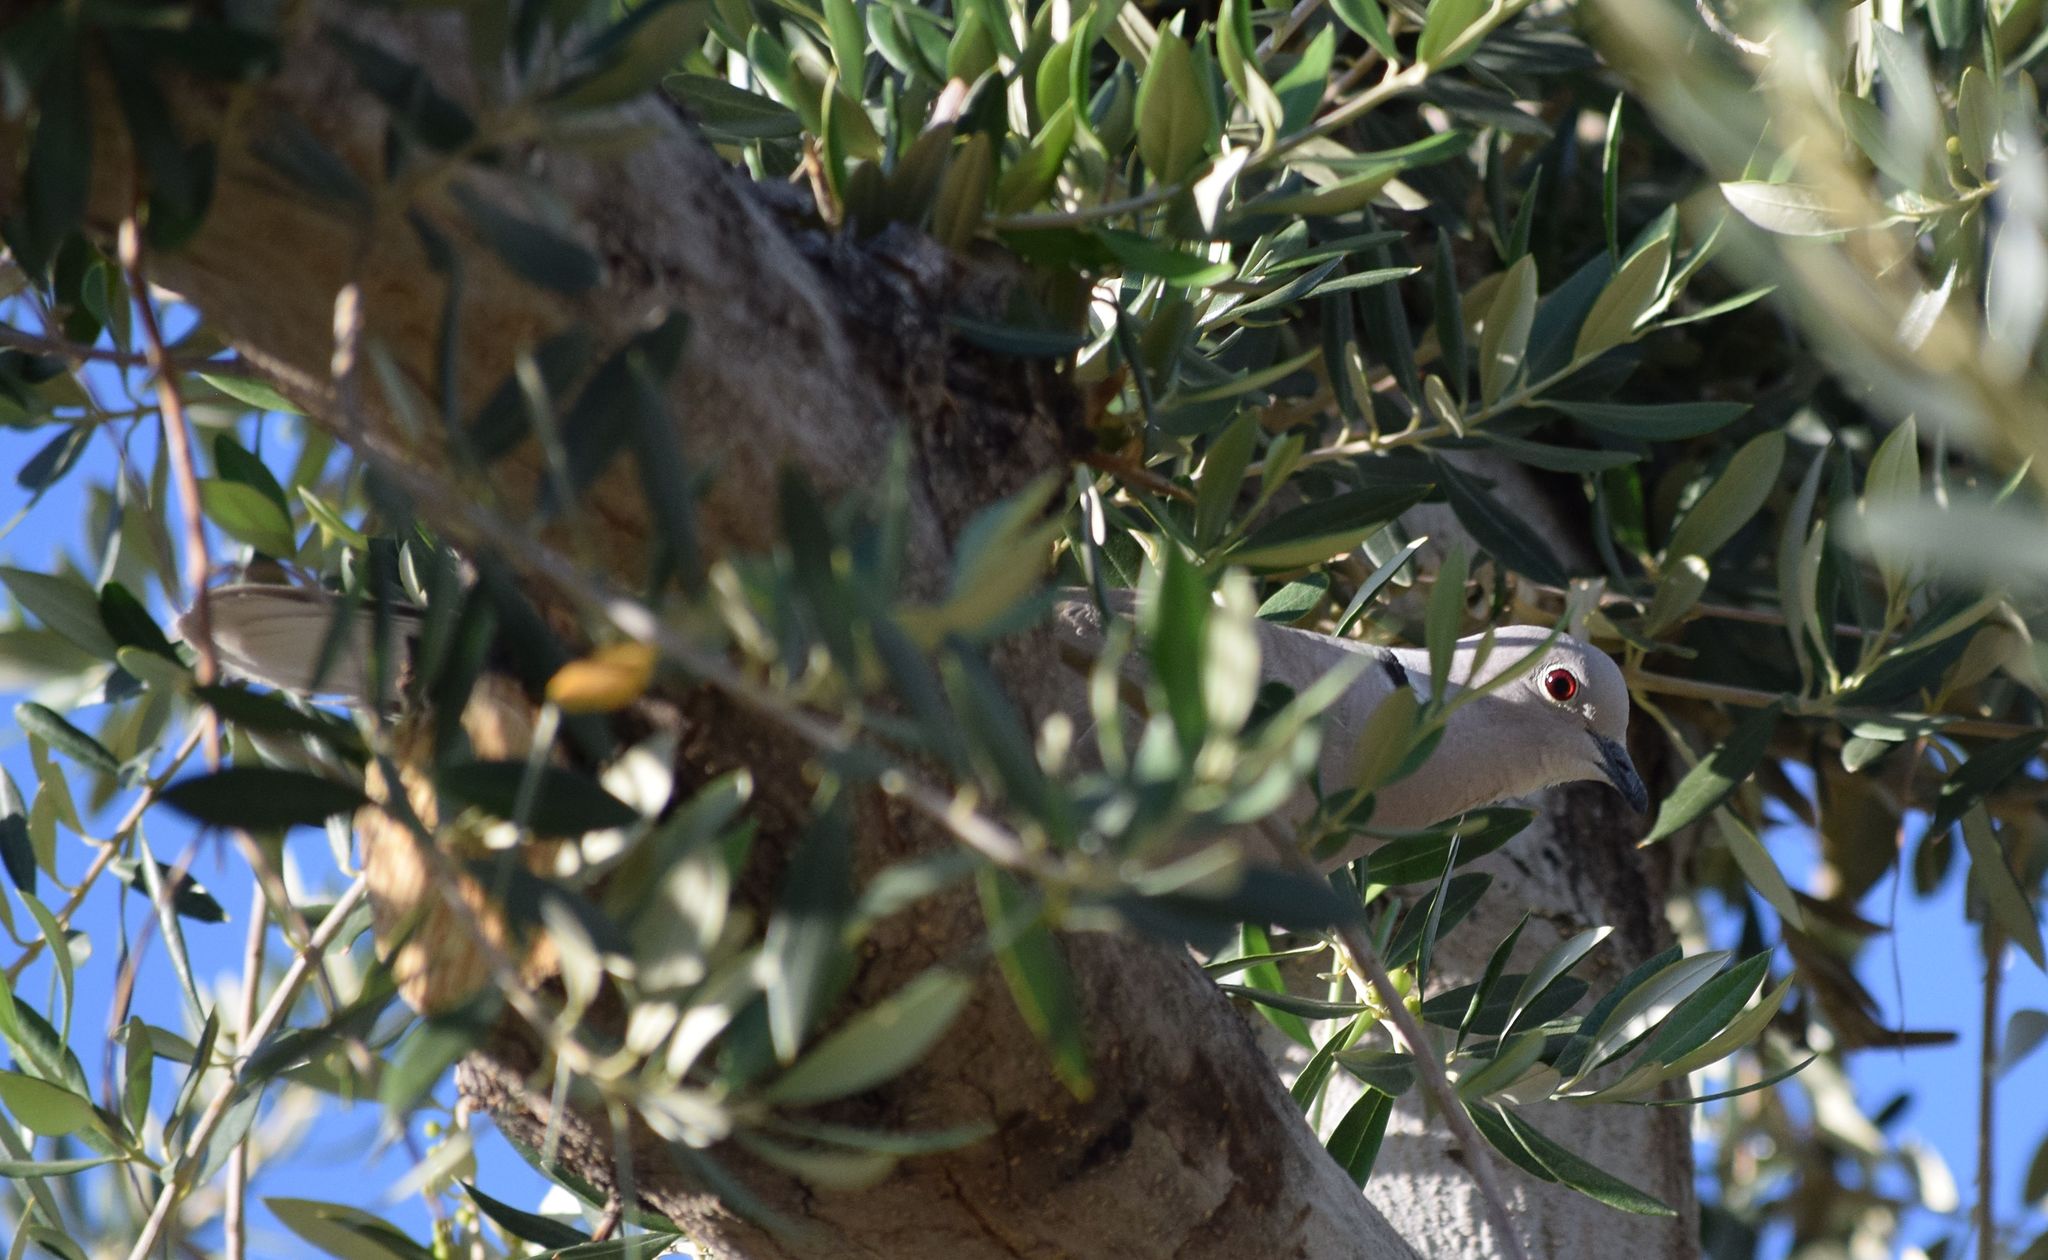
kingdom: Animalia
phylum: Chordata
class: Aves
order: Columbiformes
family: Columbidae
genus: Streptopelia
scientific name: Streptopelia decaocto
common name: Eurasian collared dove
